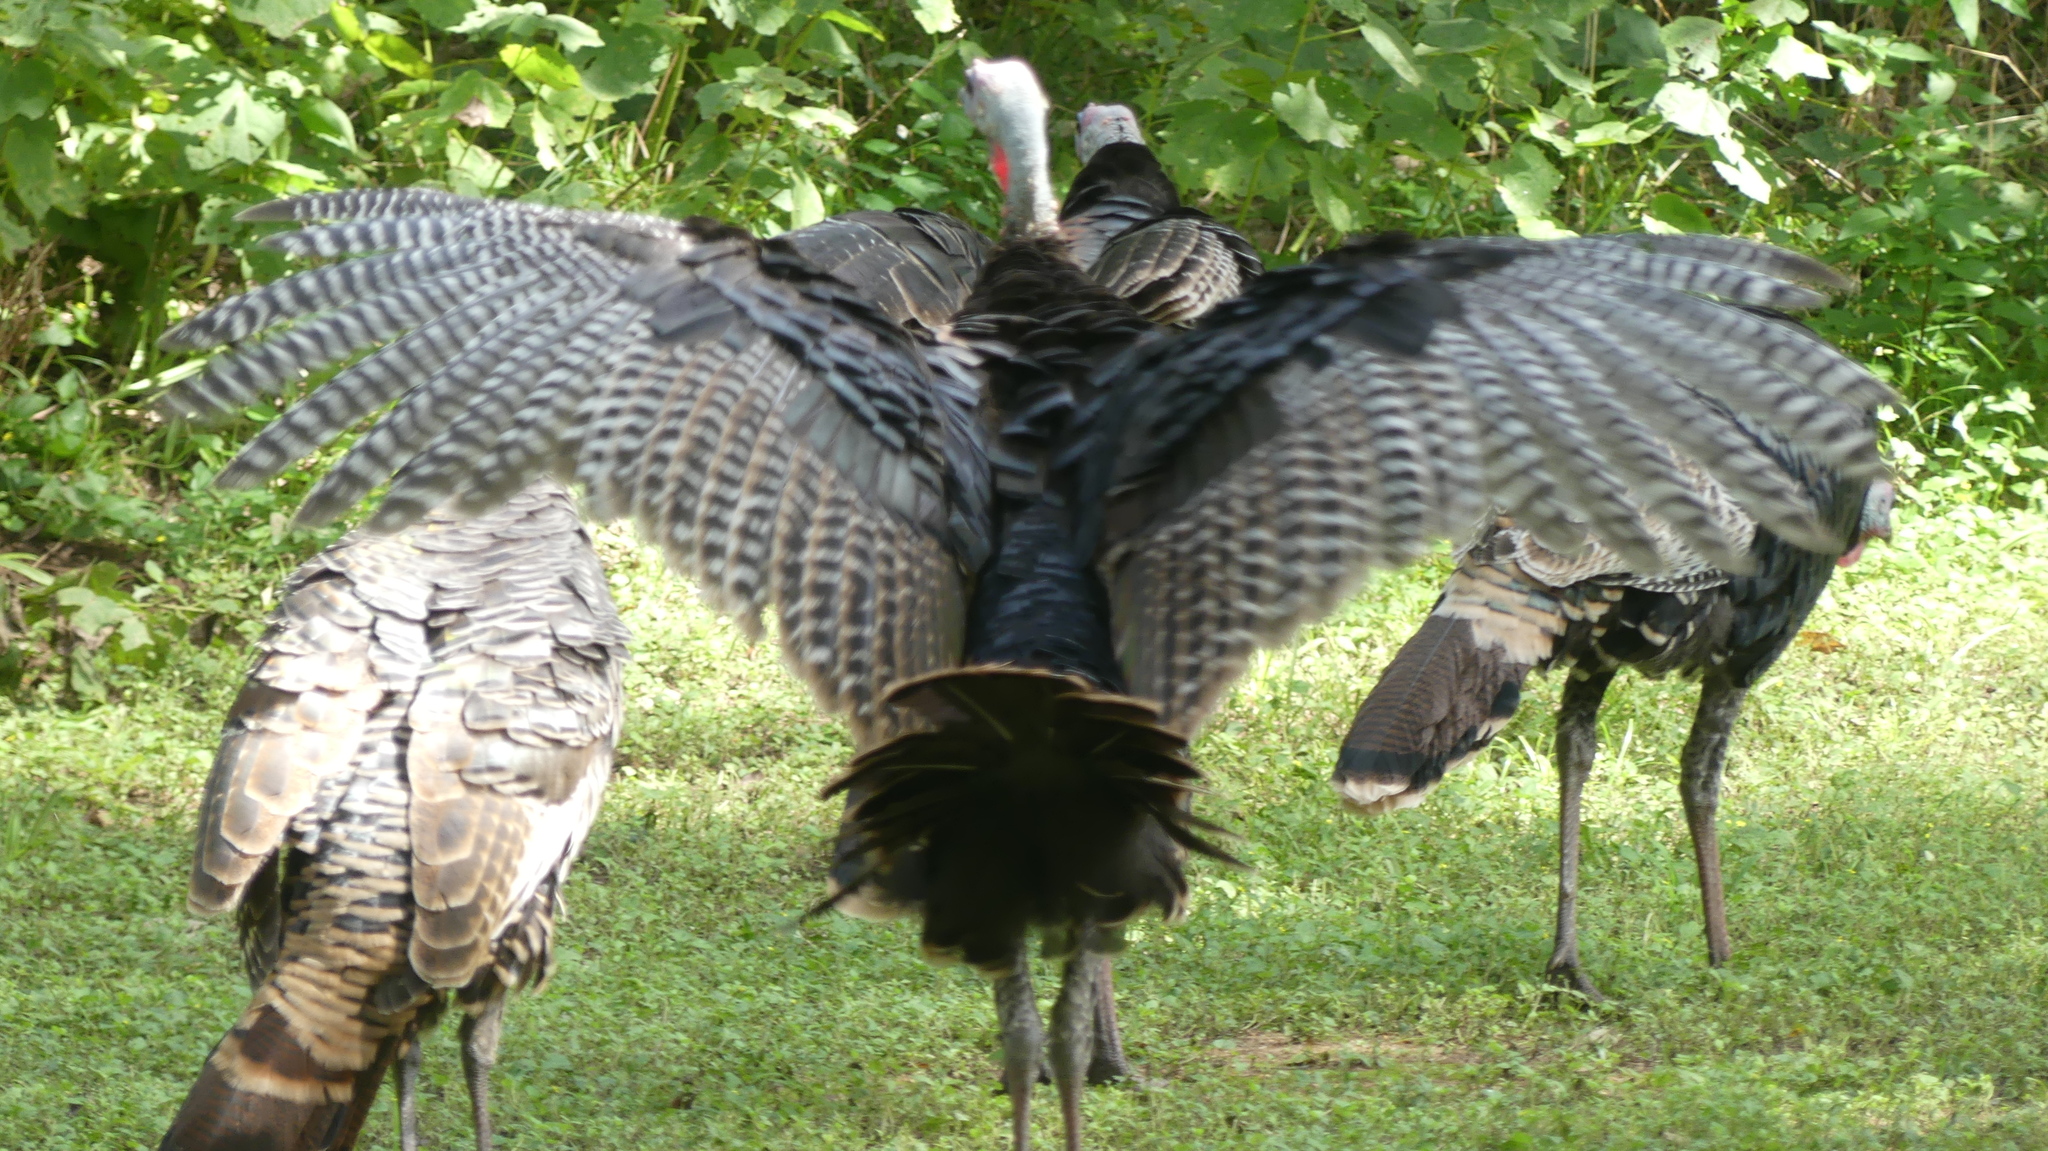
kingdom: Animalia
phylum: Chordata
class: Aves
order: Galliformes
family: Phasianidae
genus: Meleagris
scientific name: Meleagris gallopavo
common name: Wild turkey
